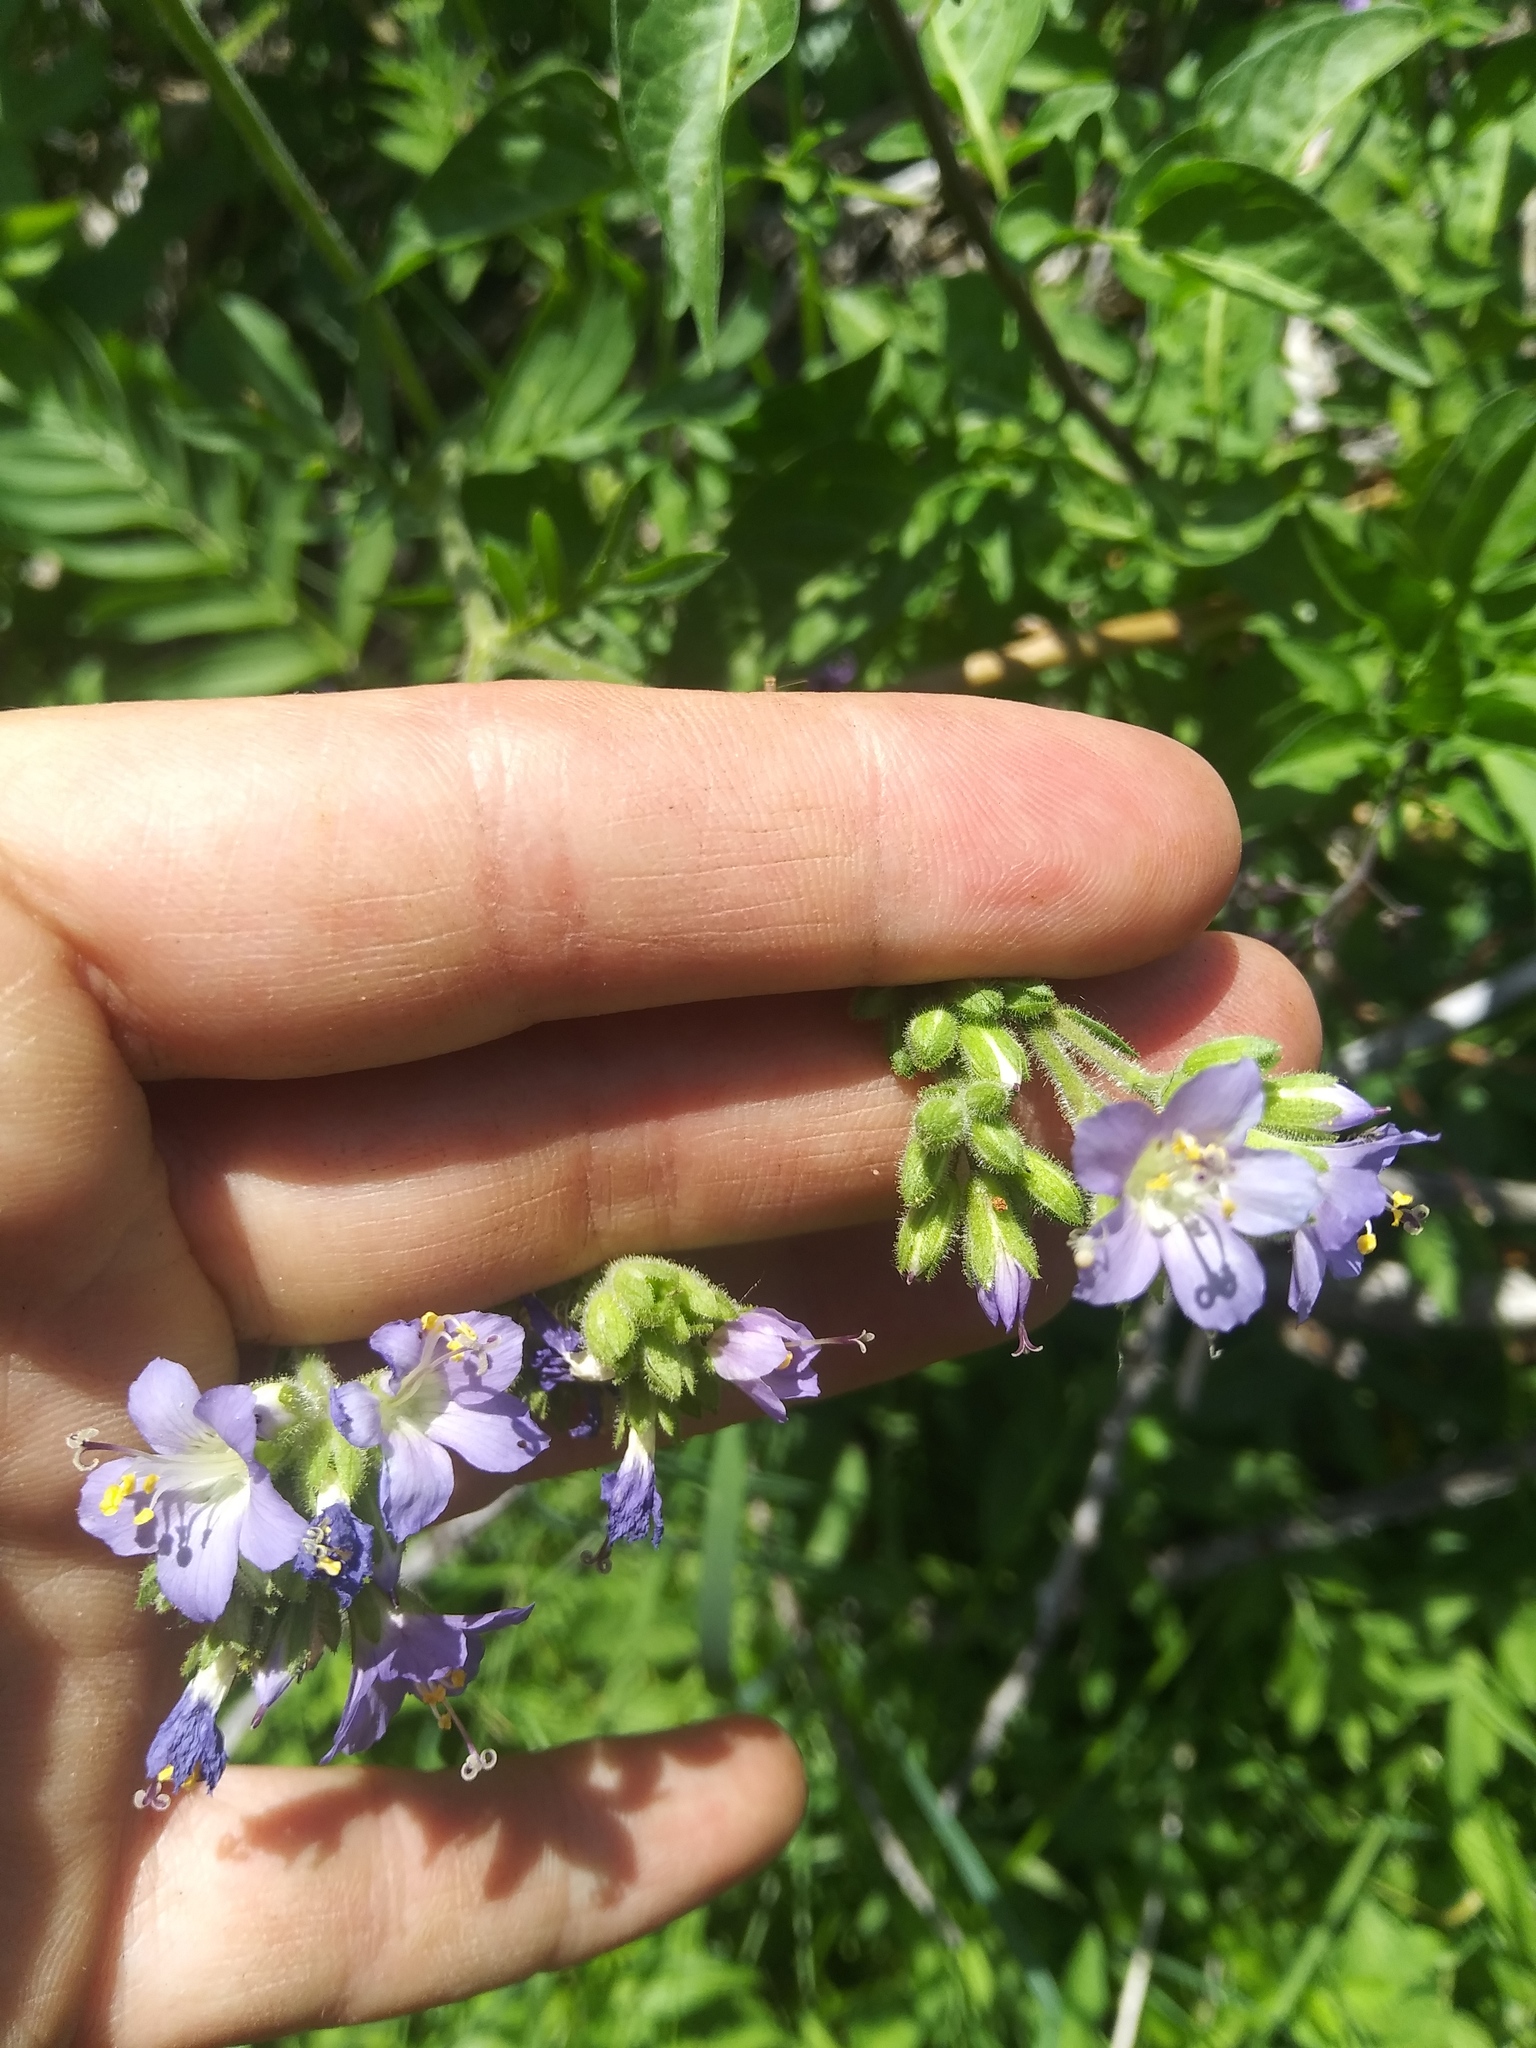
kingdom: Plantae
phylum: Tracheophyta
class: Magnoliopsida
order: Ericales
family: Polemoniaceae
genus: Polemonium
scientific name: Polemonium occidentale
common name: Western jacob's-ladder
